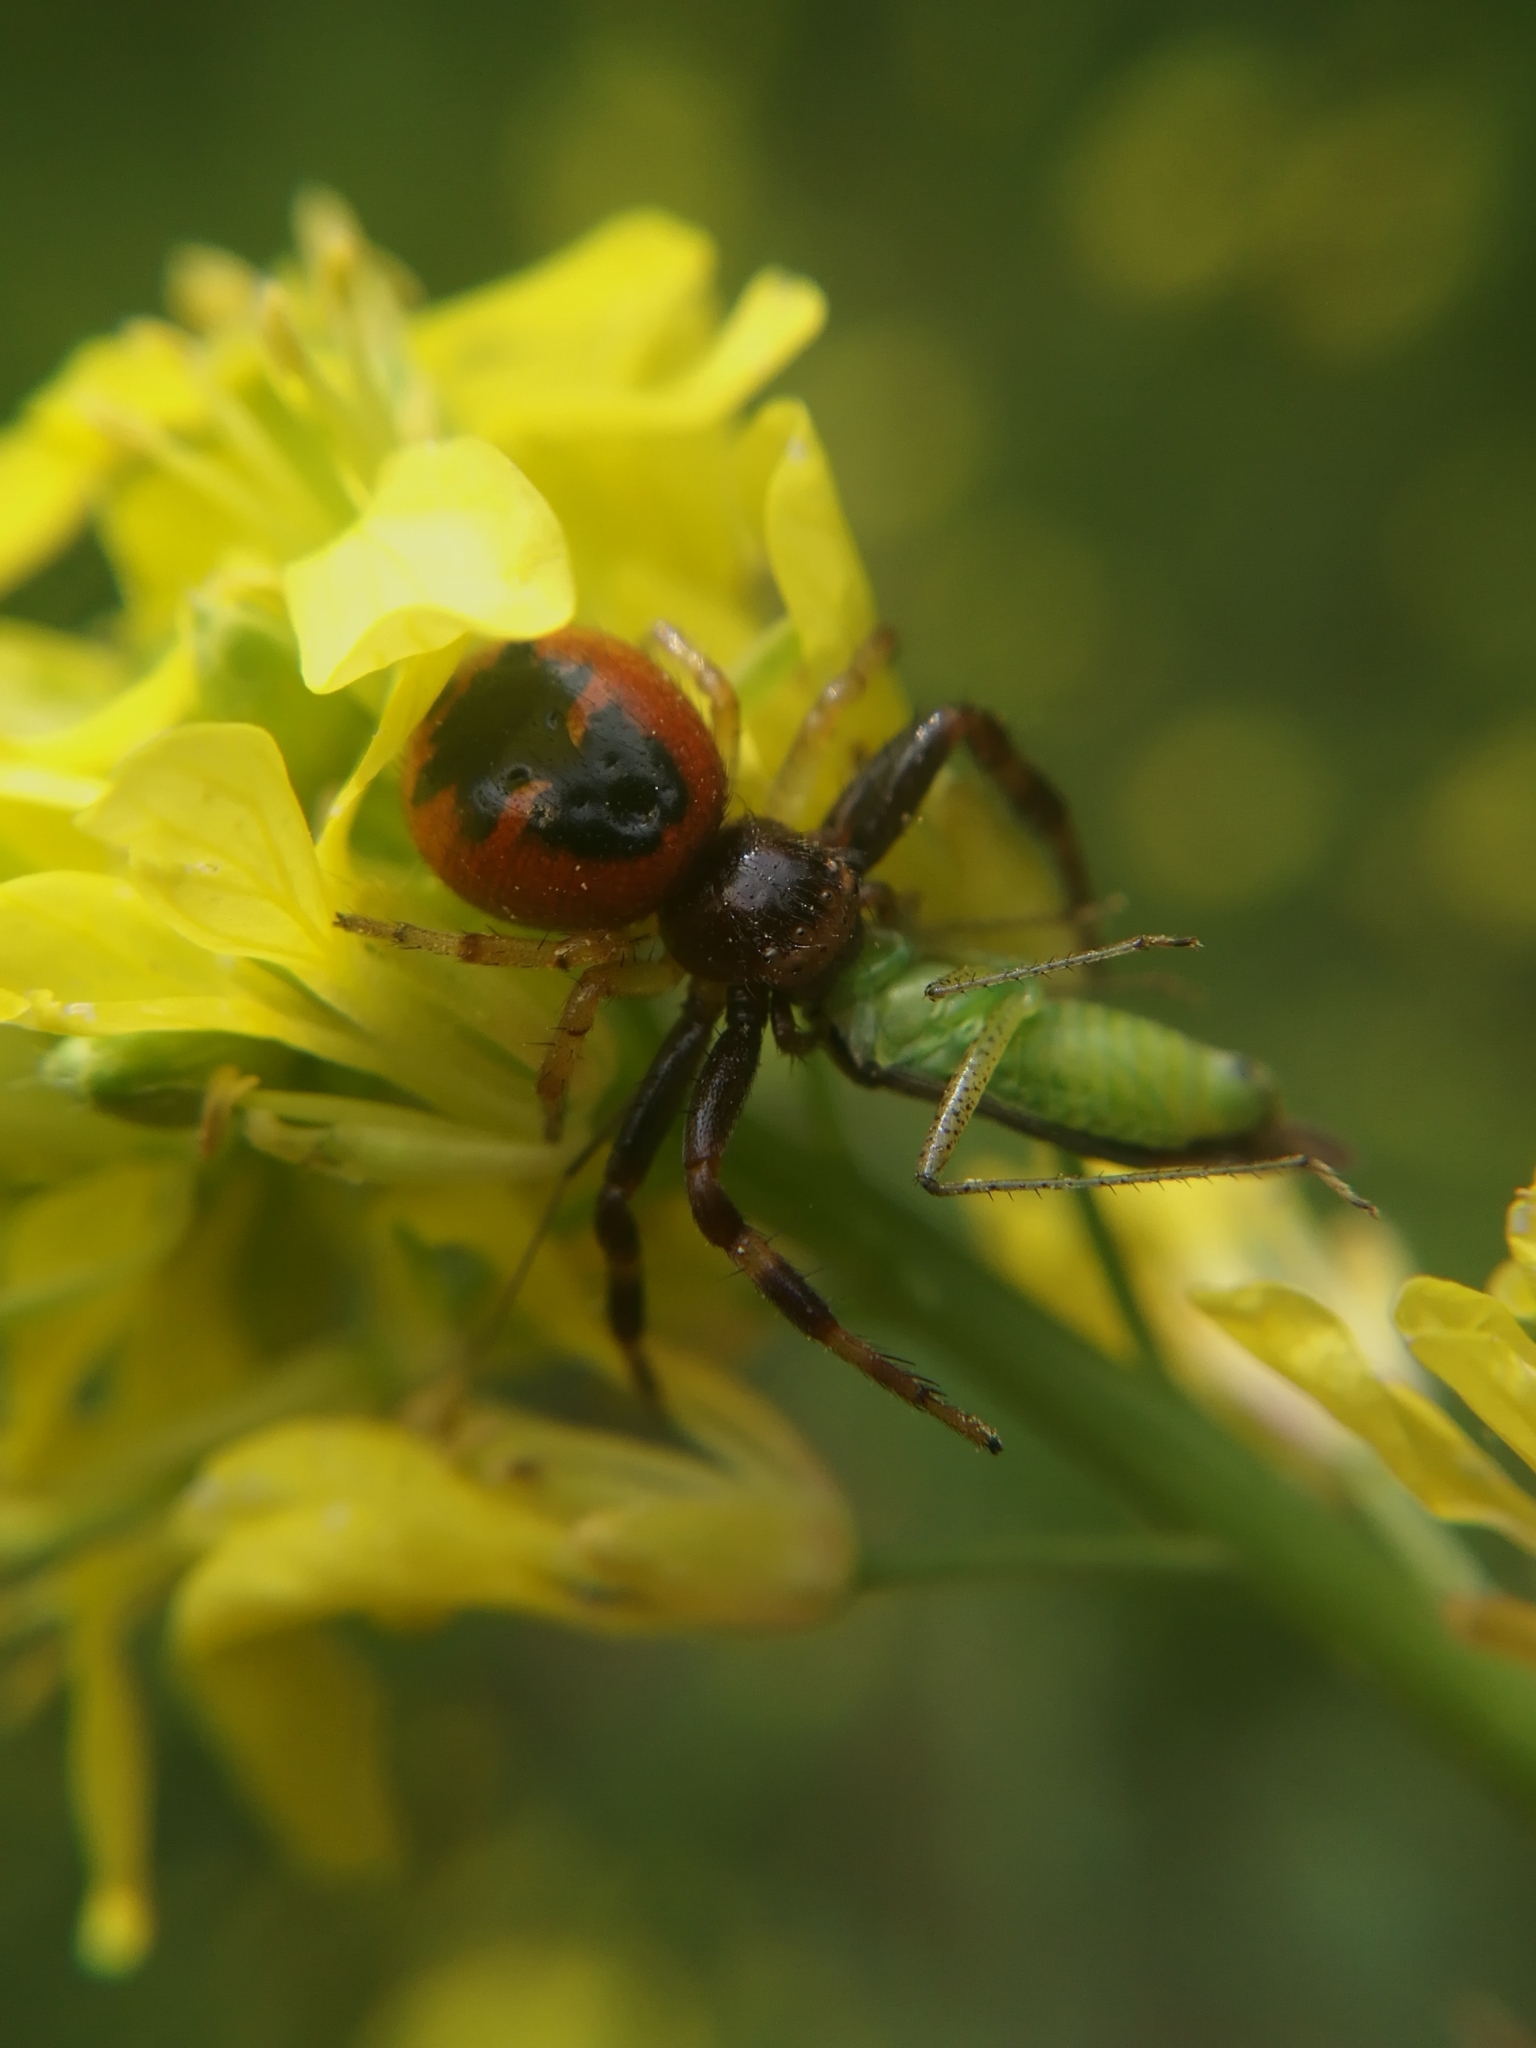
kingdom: Animalia
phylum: Arthropoda
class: Arachnida
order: Araneae
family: Thomisidae
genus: Synema
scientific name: Synema globosum
